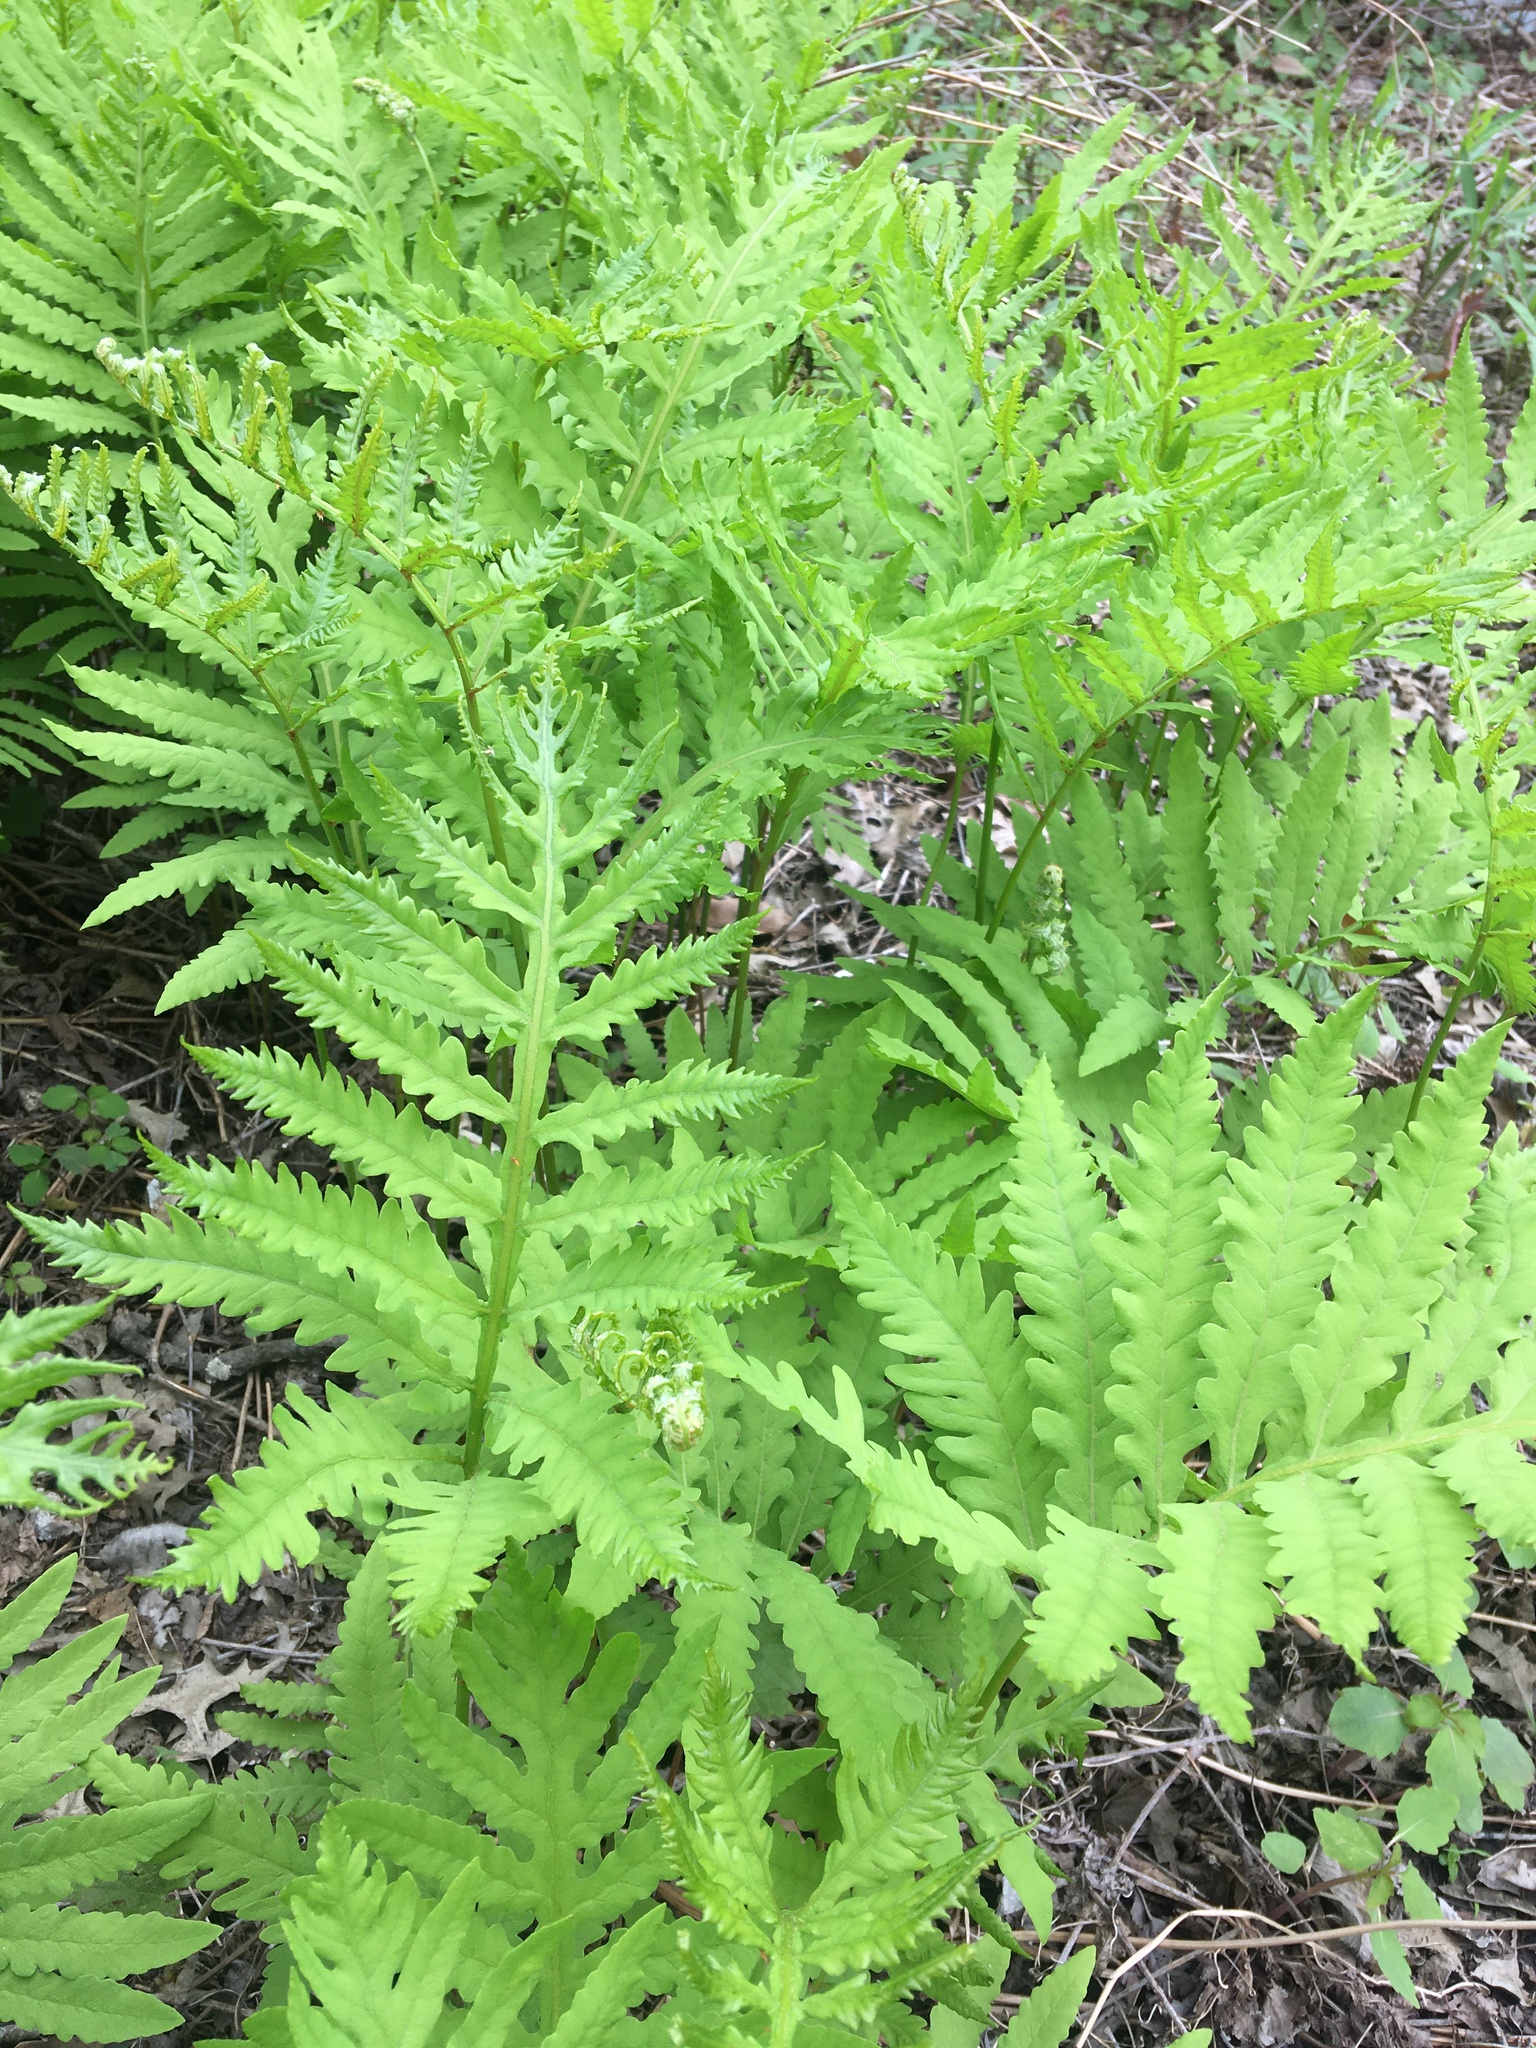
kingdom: Plantae
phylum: Tracheophyta
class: Polypodiopsida
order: Polypodiales
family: Onocleaceae
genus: Onoclea
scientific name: Onoclea sensibilis
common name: Sensitive fern
